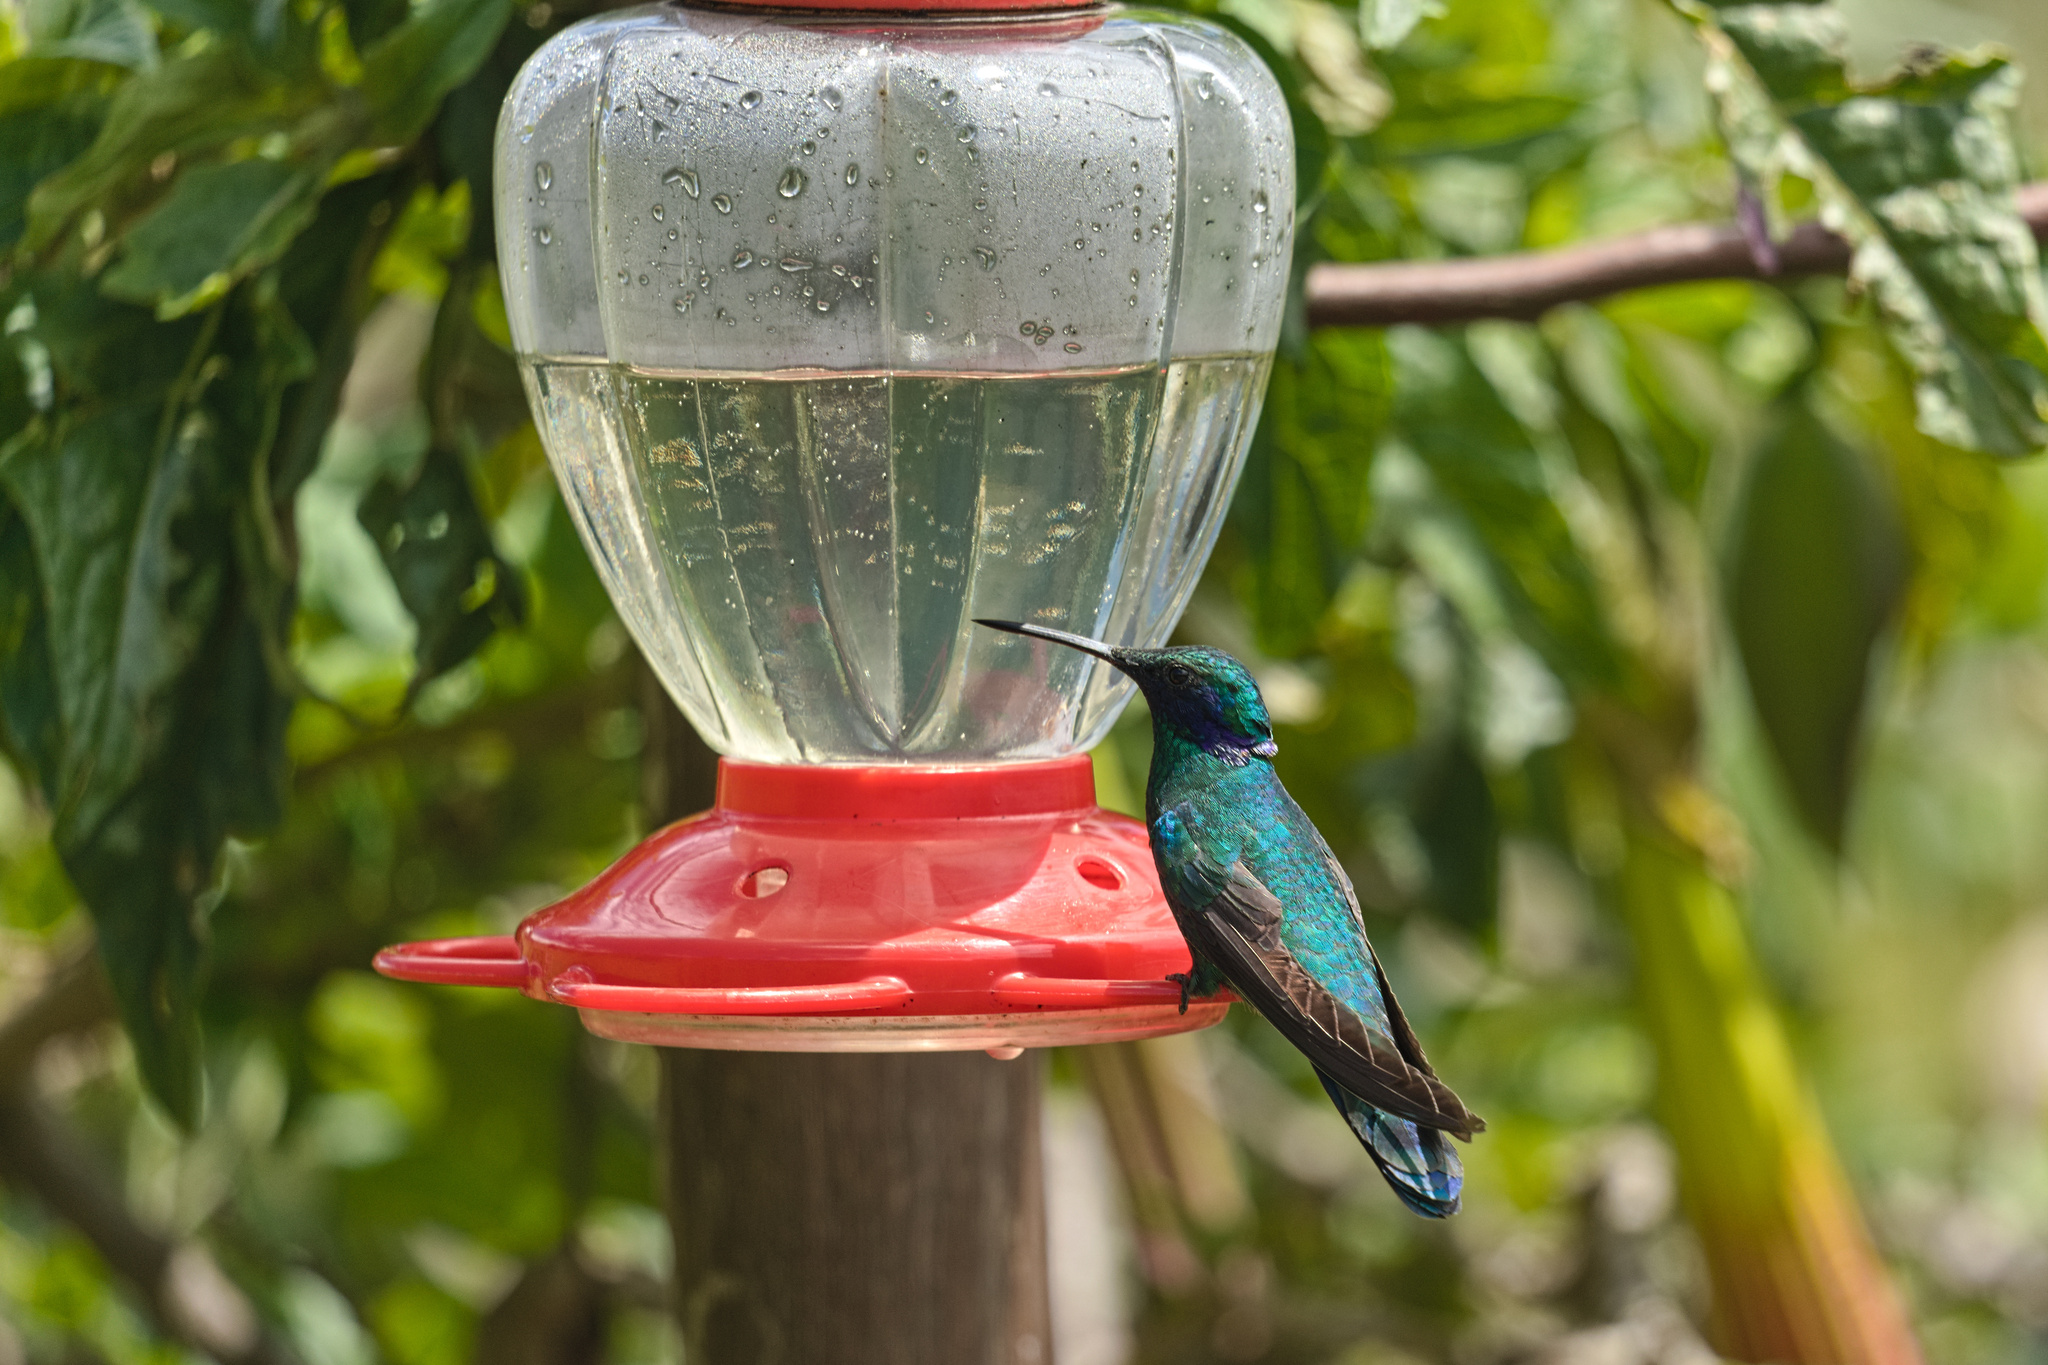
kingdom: Animalia
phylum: Chordata
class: Aves
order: Apodiformes
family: Trochilidae
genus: Colibri
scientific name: Colibri coruscans
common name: Sparkling violetear
